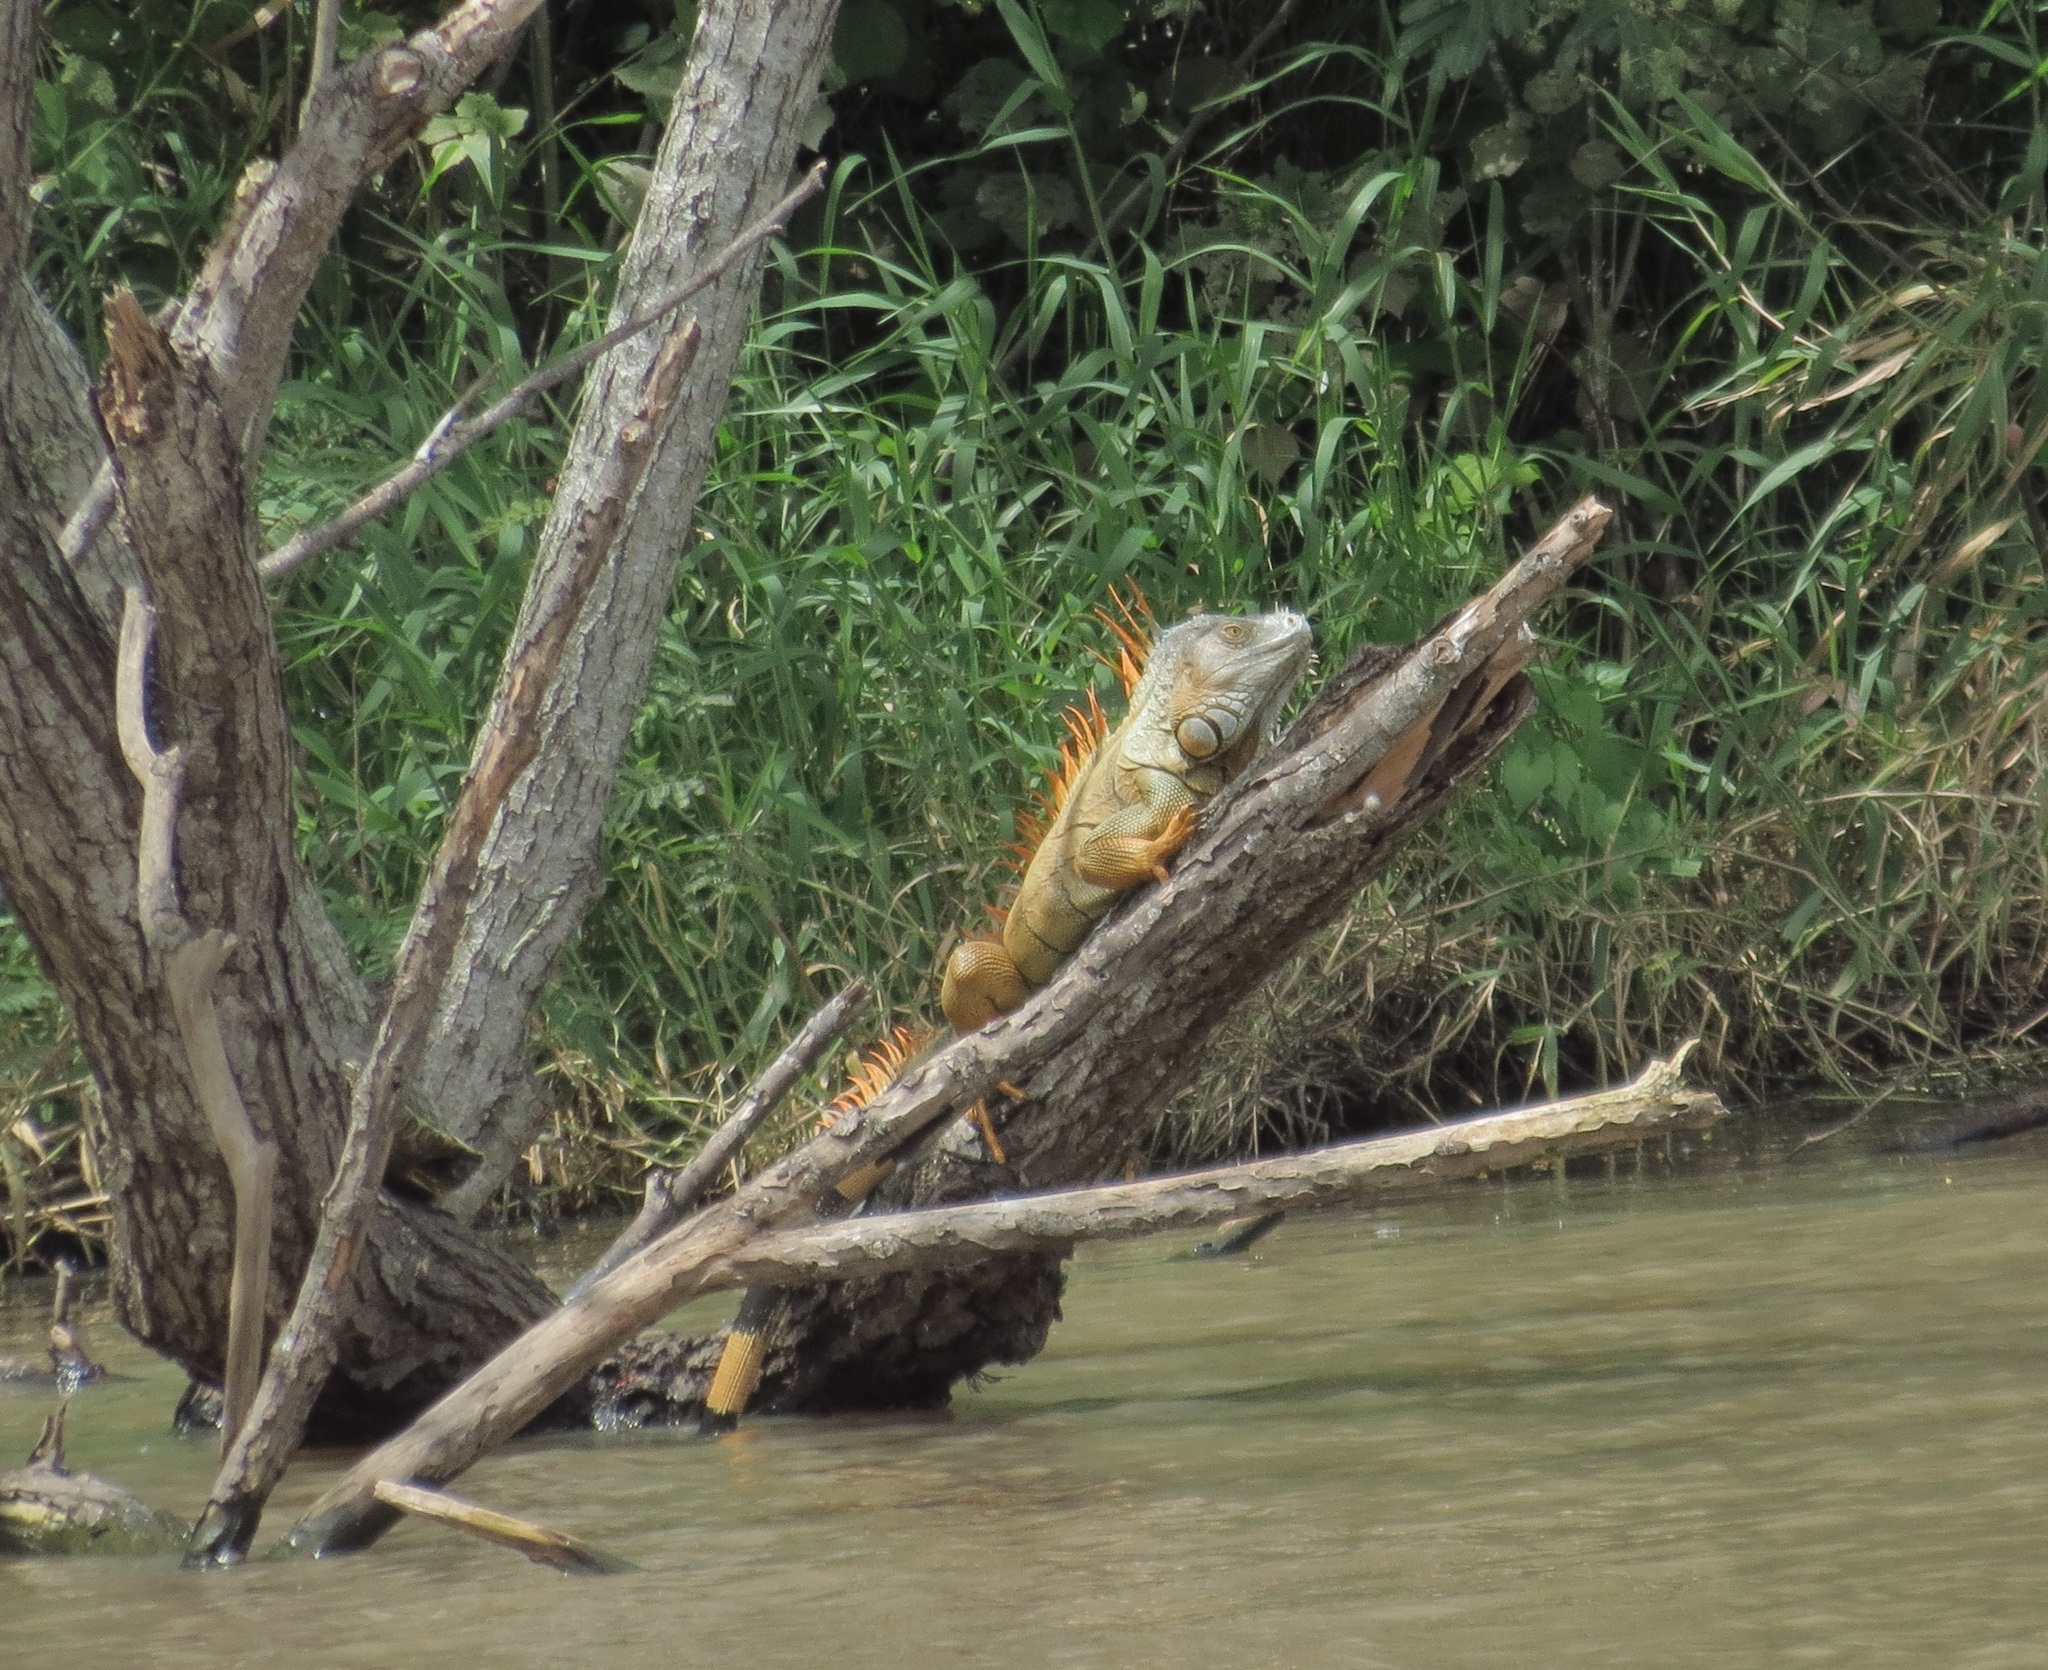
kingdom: Animalia
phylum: Chordata
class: Squamata
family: Iguanidae
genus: Iguana
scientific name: Iguana iguana
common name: Green iguana
